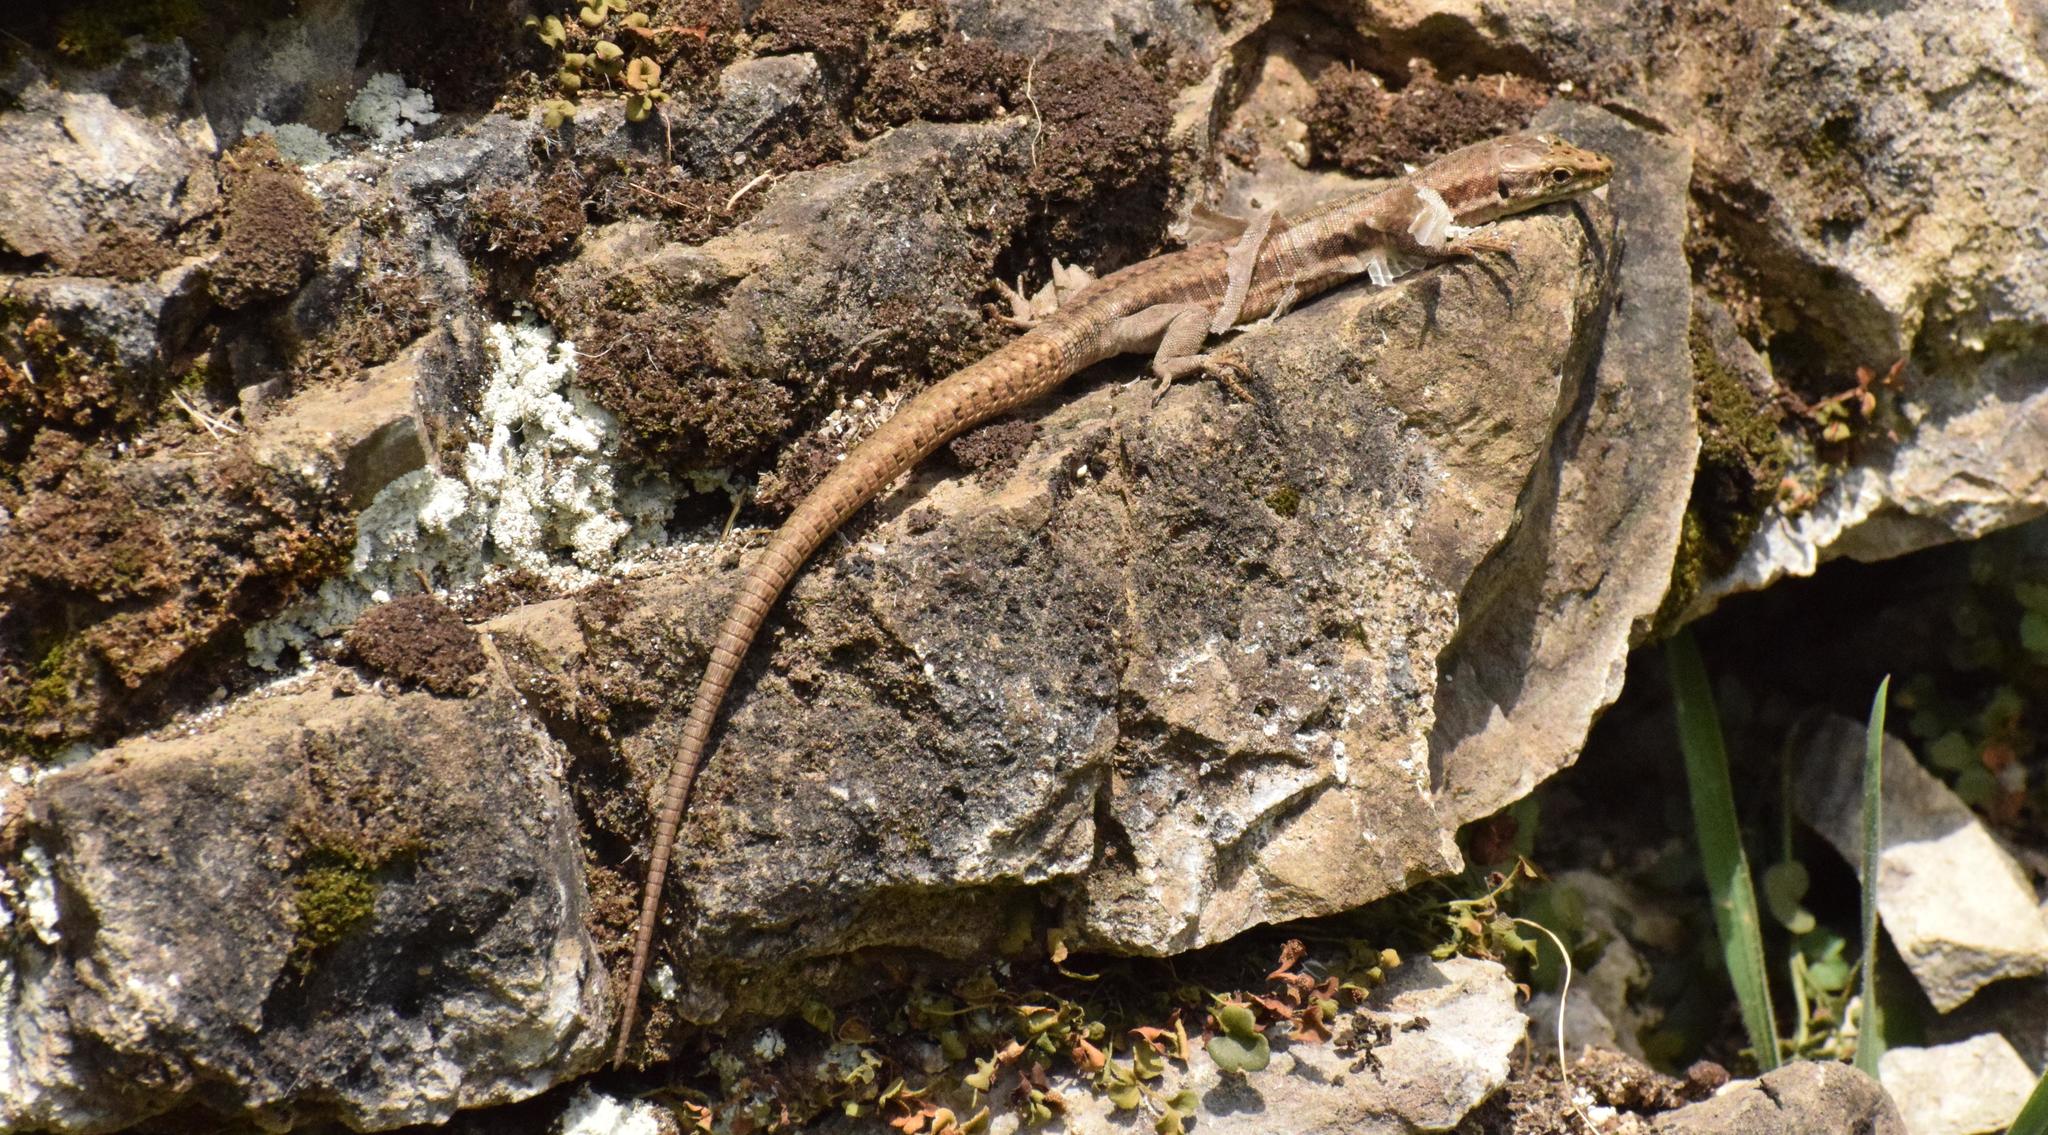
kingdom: Animalia
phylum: Chordata
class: Squamata
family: Lacertidae
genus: Podarcis
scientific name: Podarcis muralis
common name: Common wall lizard
